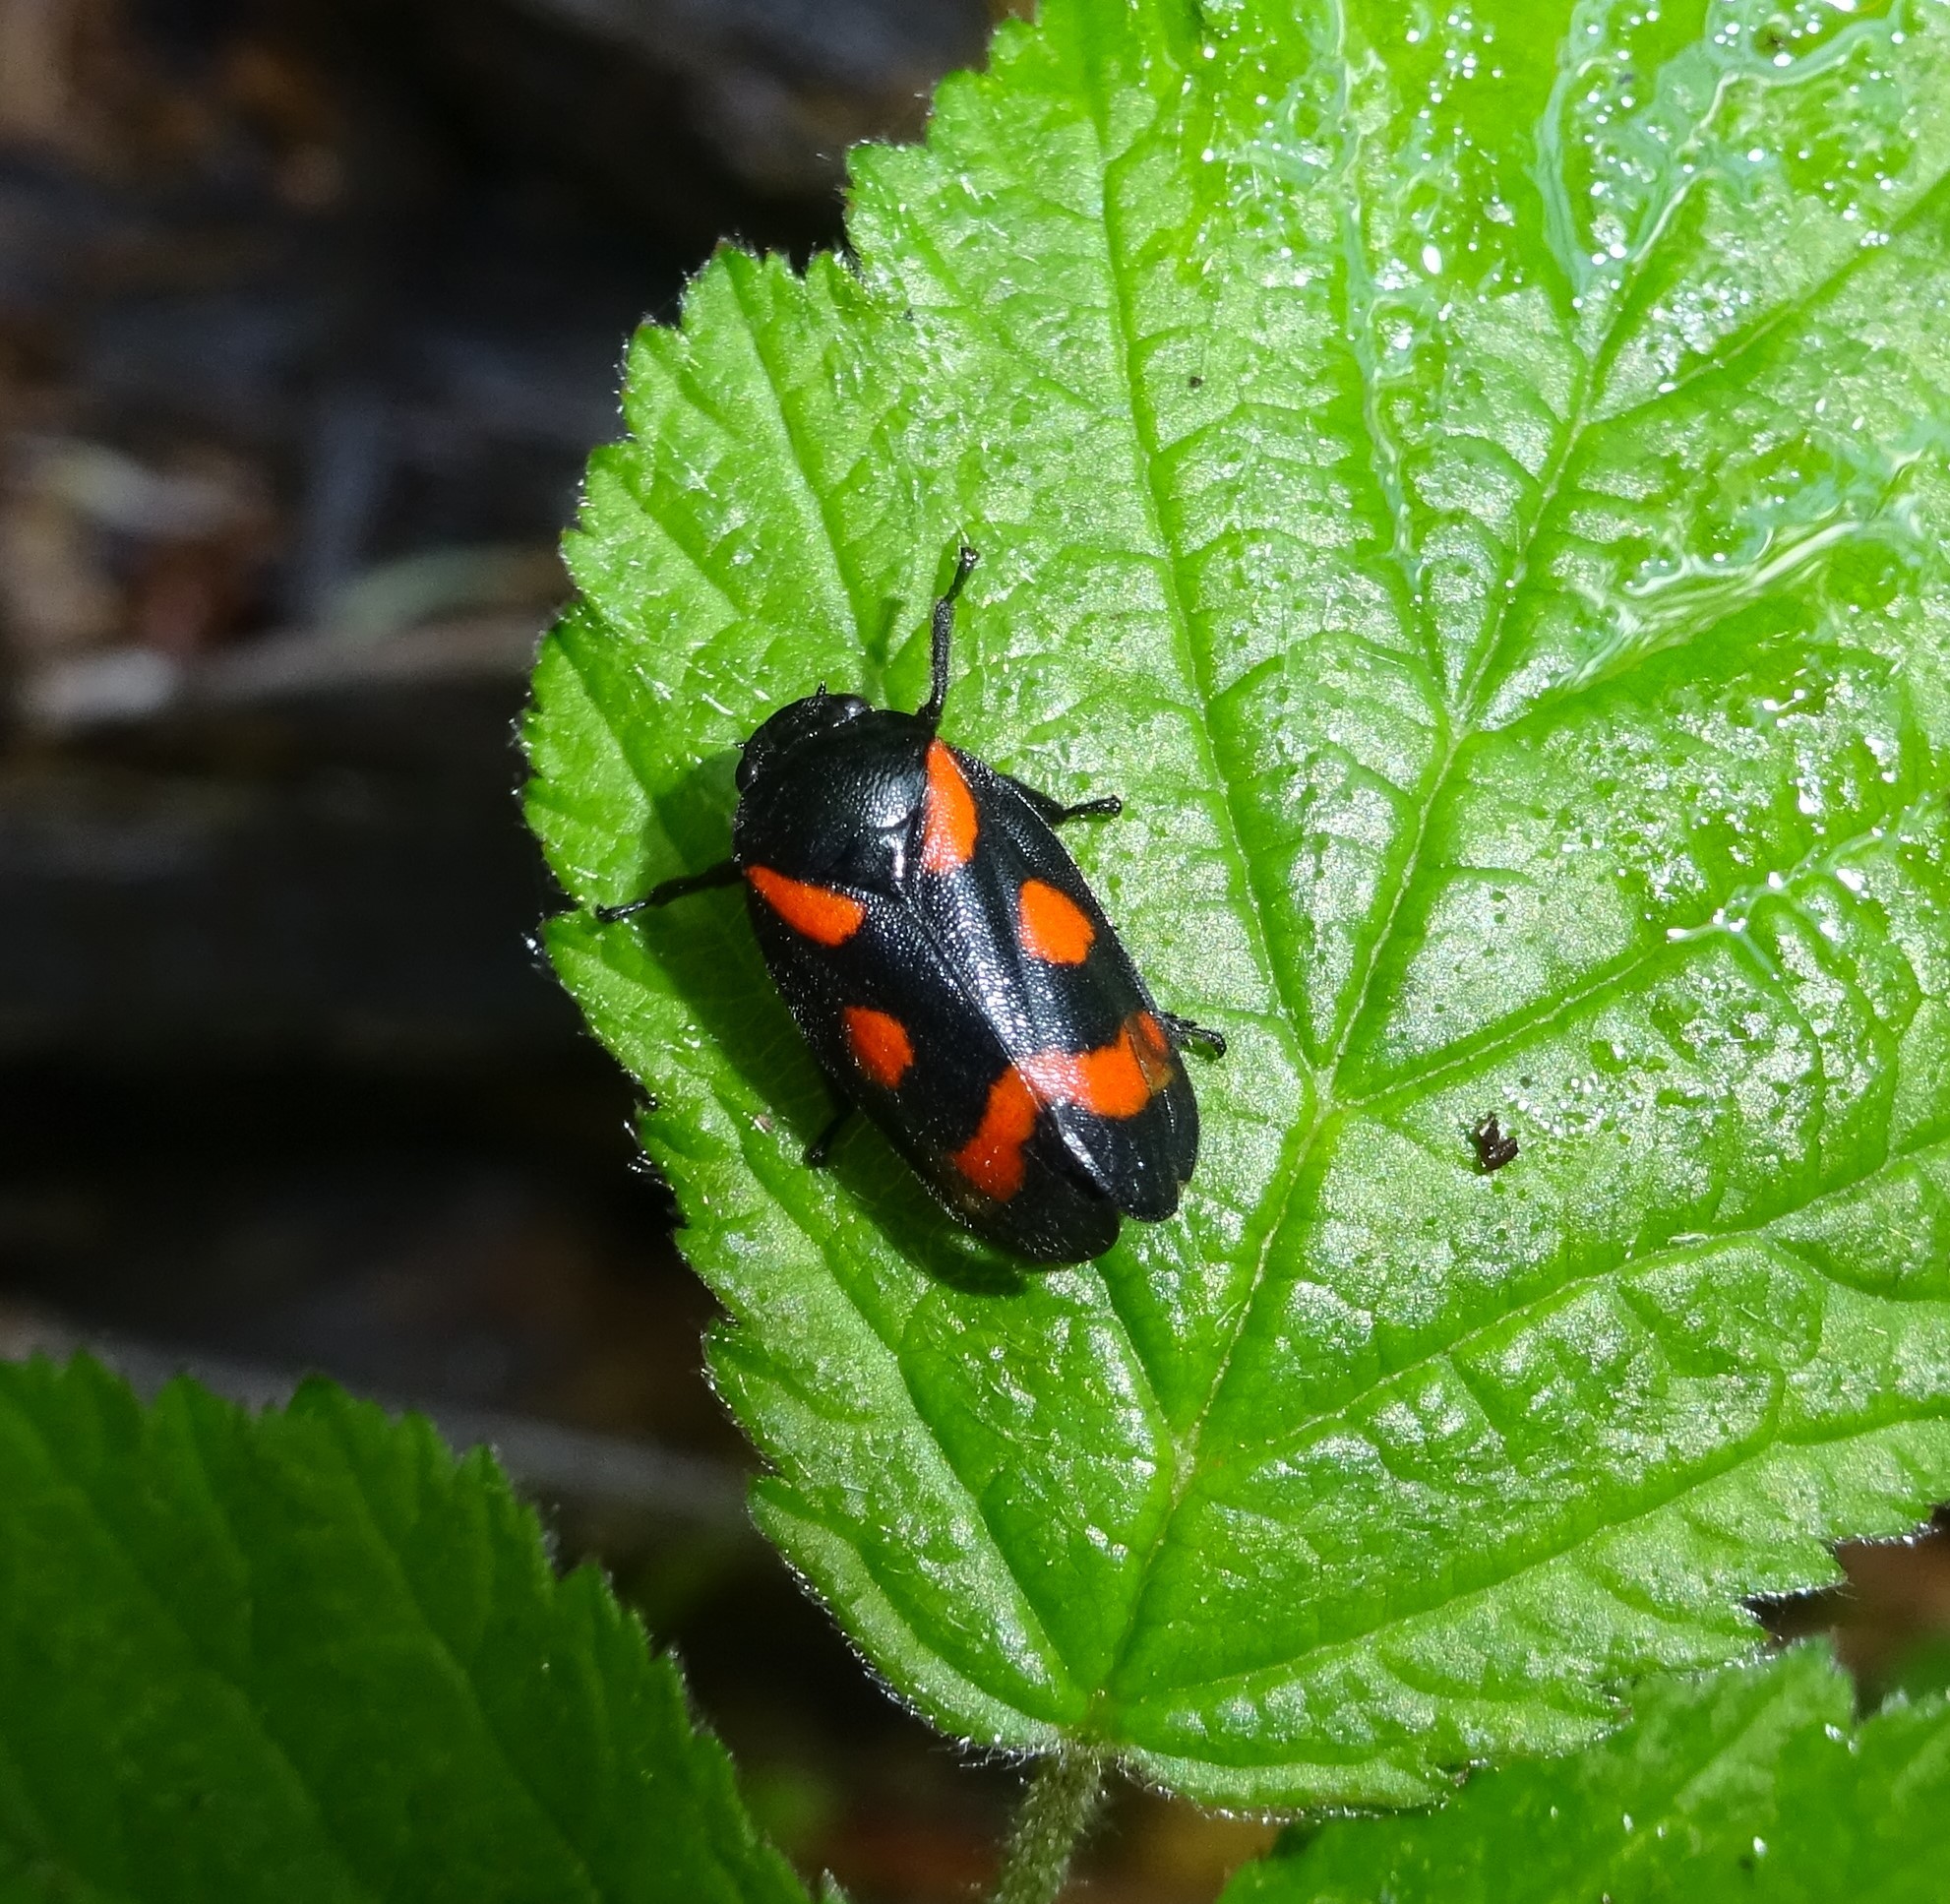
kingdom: Animalia
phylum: Arthropoda
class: Insecta
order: Hemiptera
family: Cercopidae
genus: Cercopis
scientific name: Cercopis
